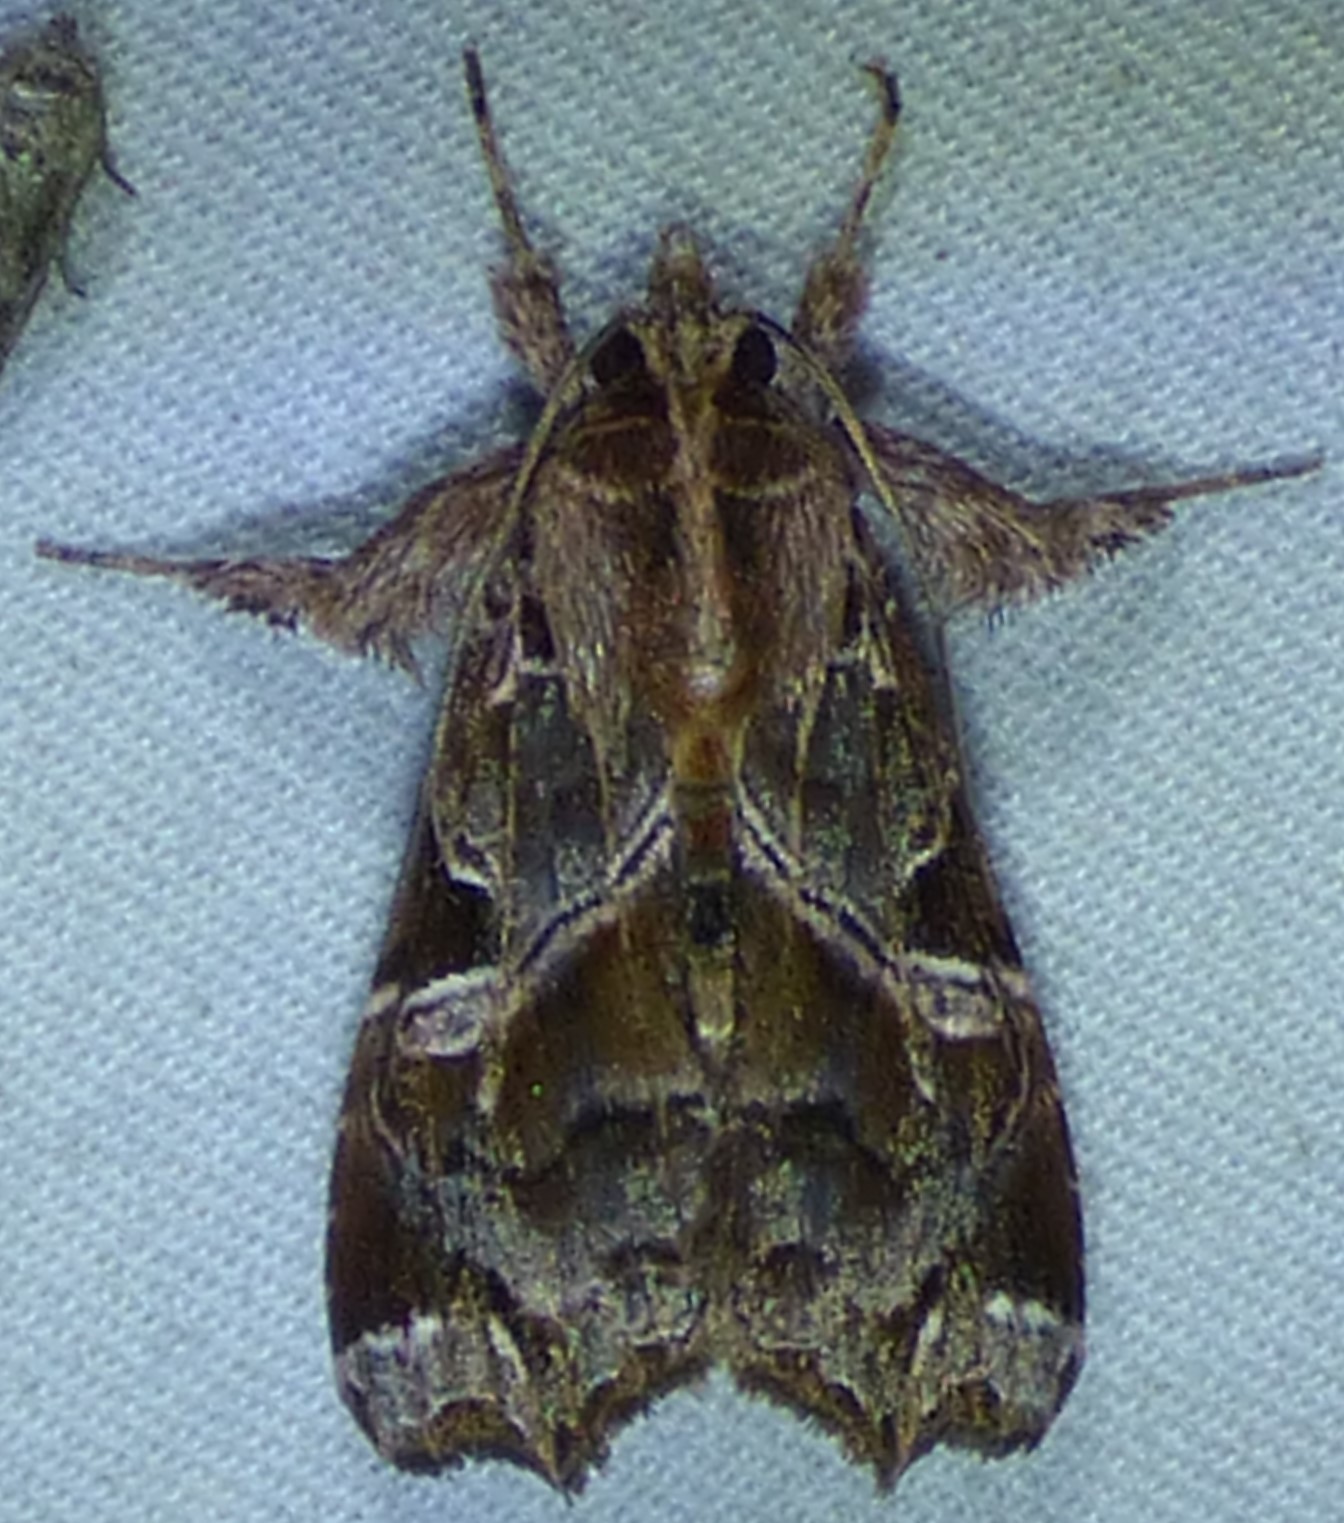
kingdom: Animalia
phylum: Arthropoda
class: Insecta
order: Lepidoptera
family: Noctuidae
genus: Callopistria
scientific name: Callopistria floridensis
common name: Florida fern moth
